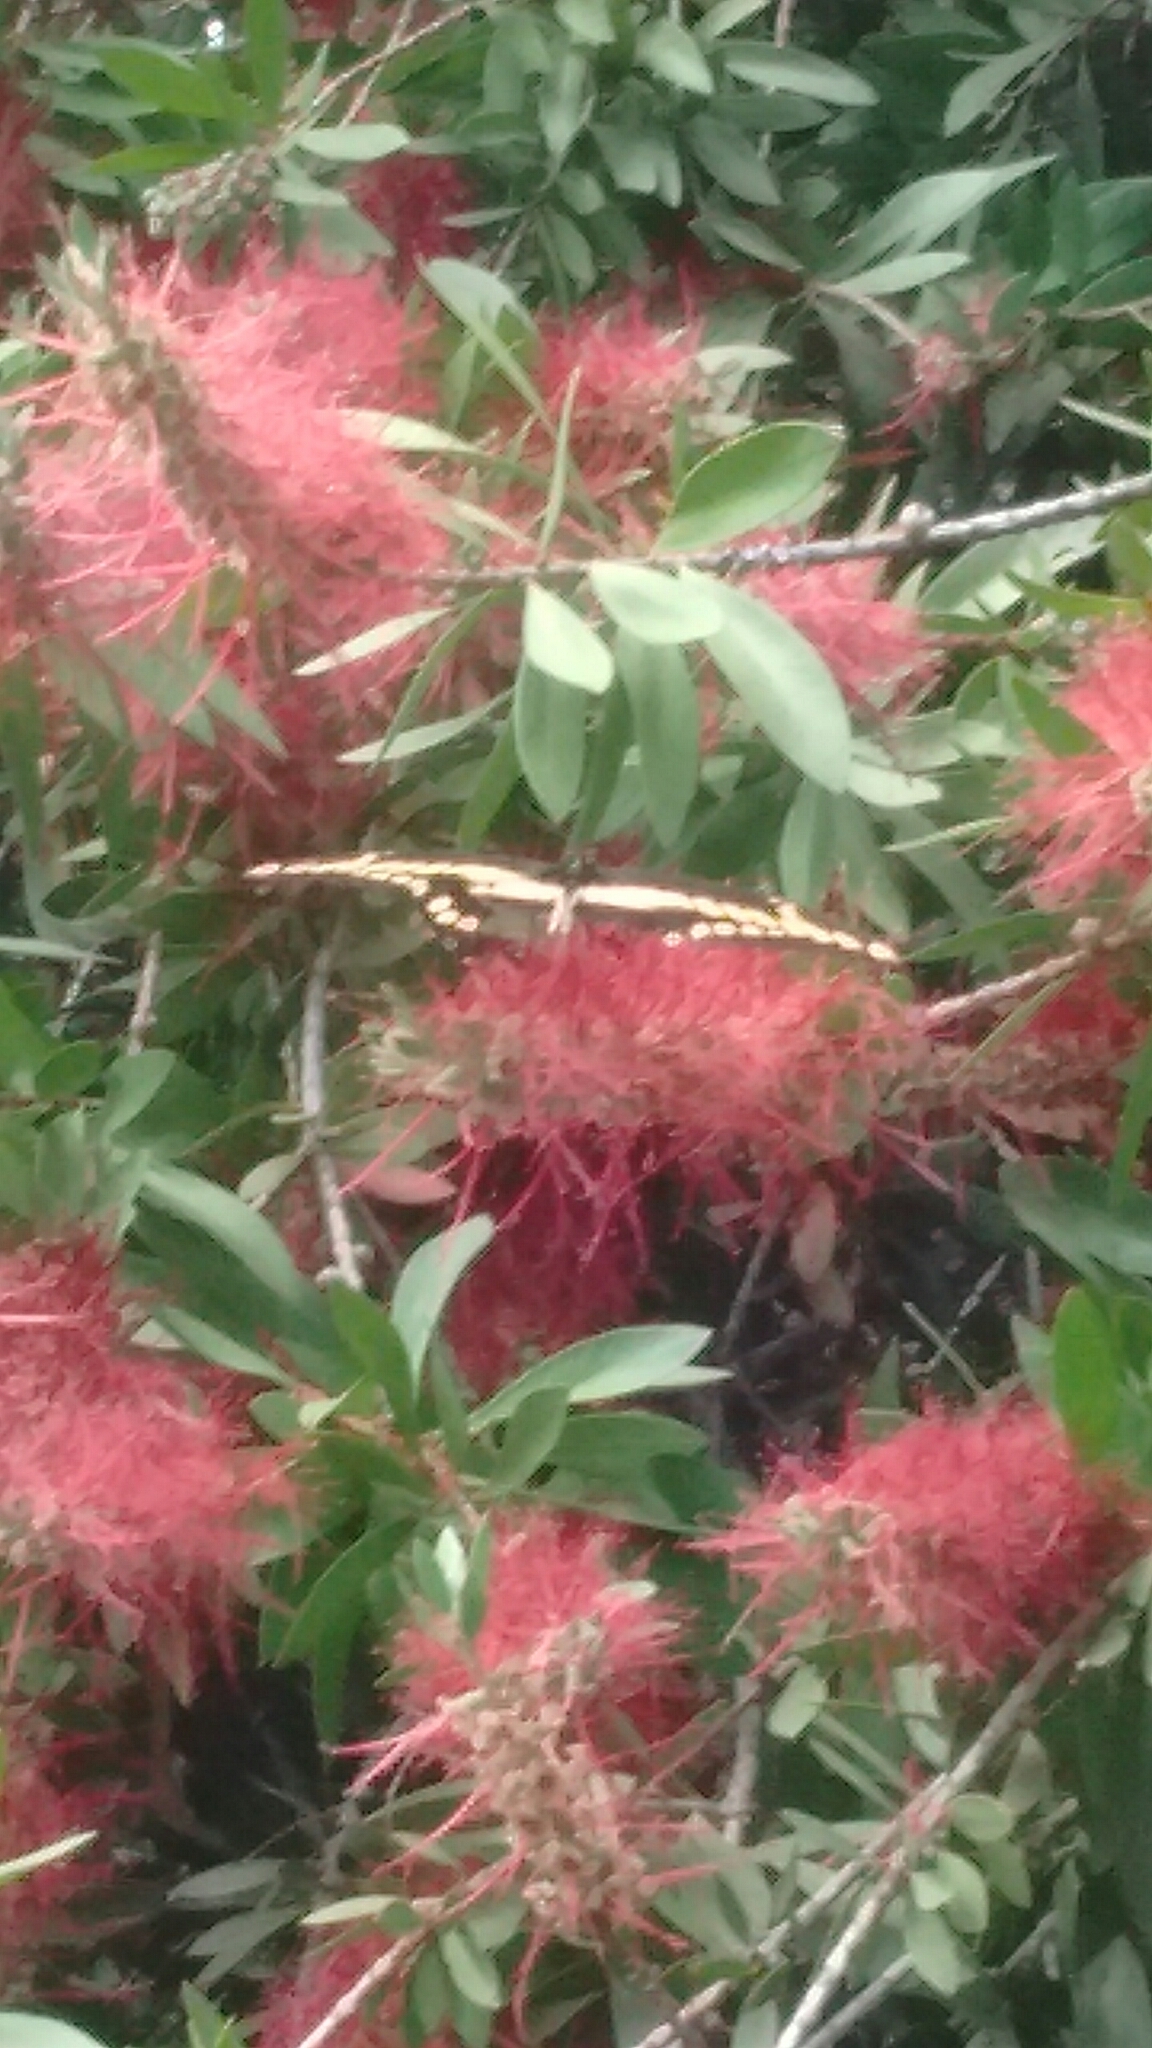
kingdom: Animalia
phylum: Arthropoda
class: Insecta
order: Lepidoptera
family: Papilionidae
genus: Papilio
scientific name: Papilio thoas
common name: King swallowtail
